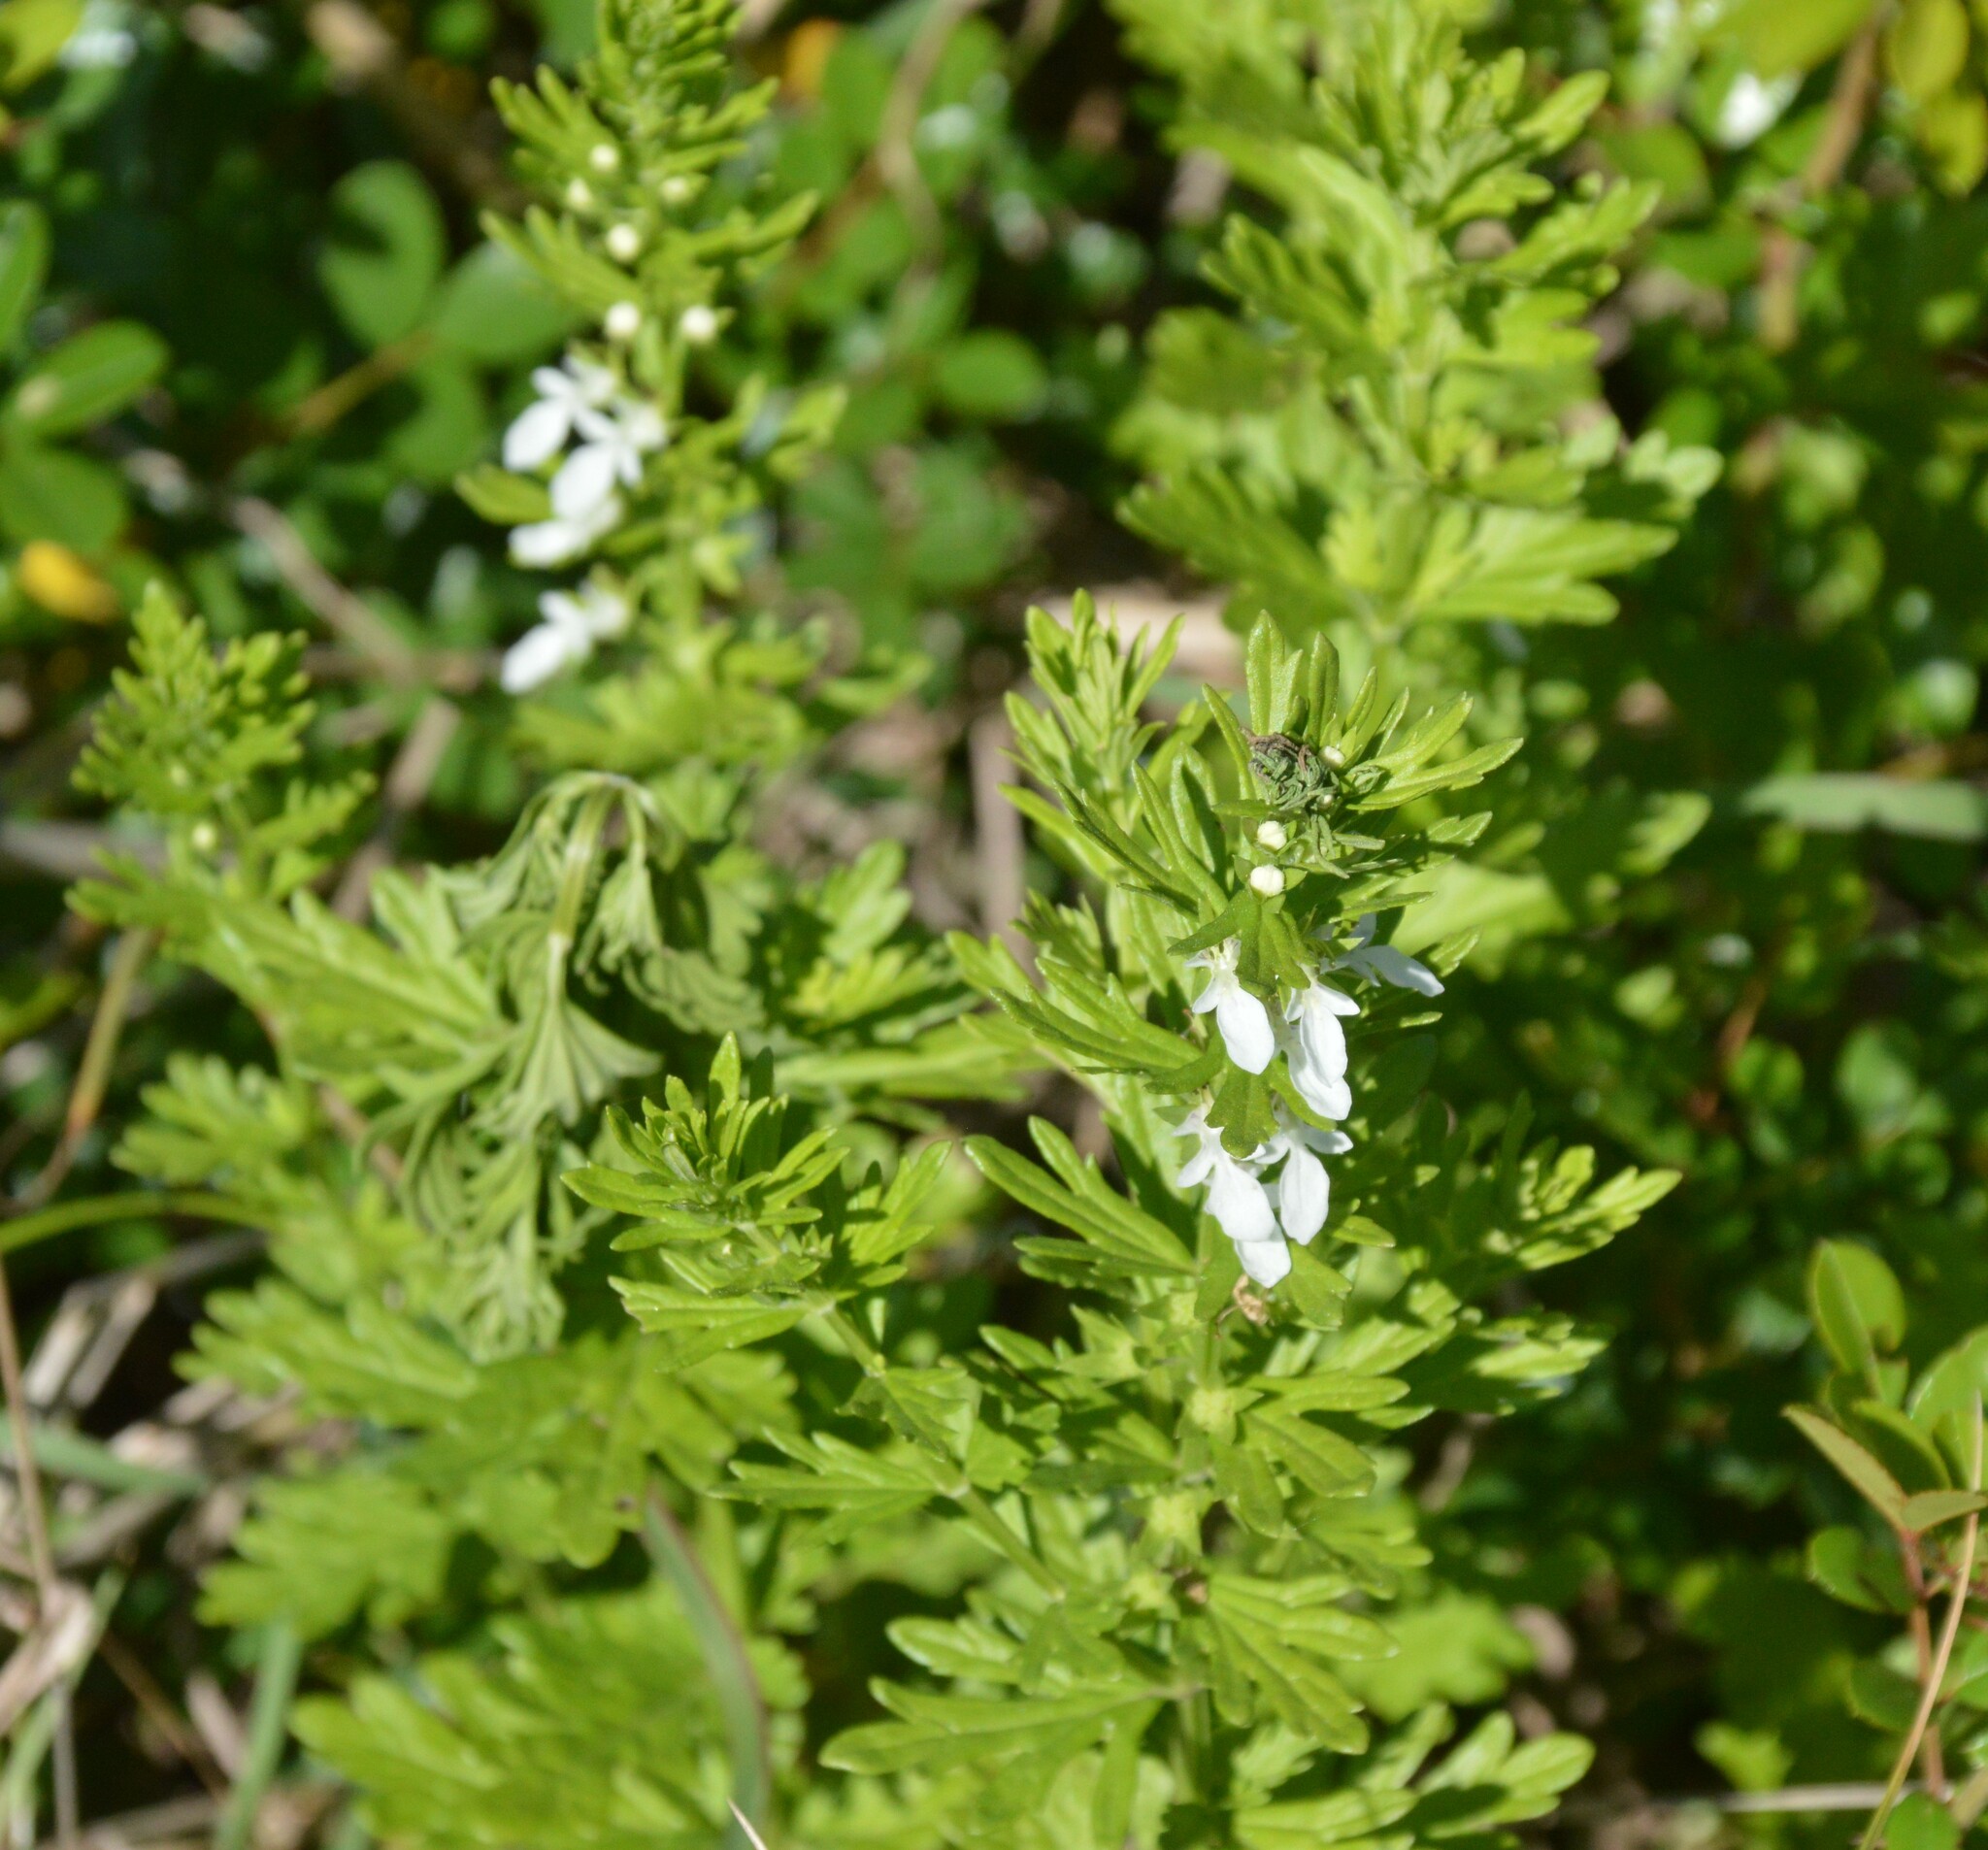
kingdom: Plantae
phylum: Tracheophyta
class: Magnoliopsida
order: Lamiales
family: Lamiaceae
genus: Teucrium
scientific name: Teucrium cubense
